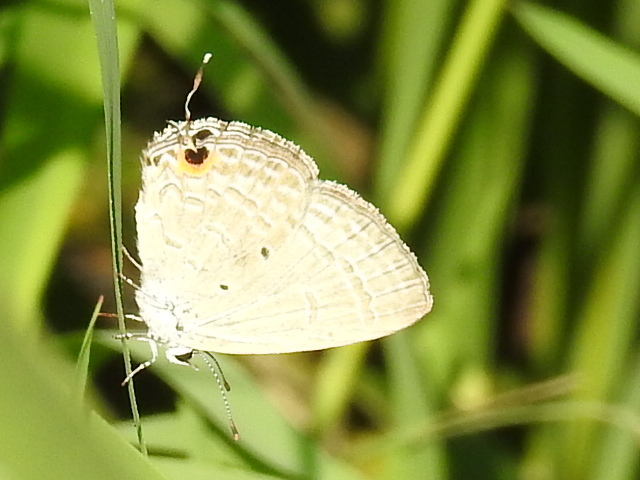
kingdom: Animalia
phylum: Arthropoda
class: Insecta
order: Lepidoptera
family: Lycaenidae
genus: Catochrysops
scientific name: Catochrysops strabo
